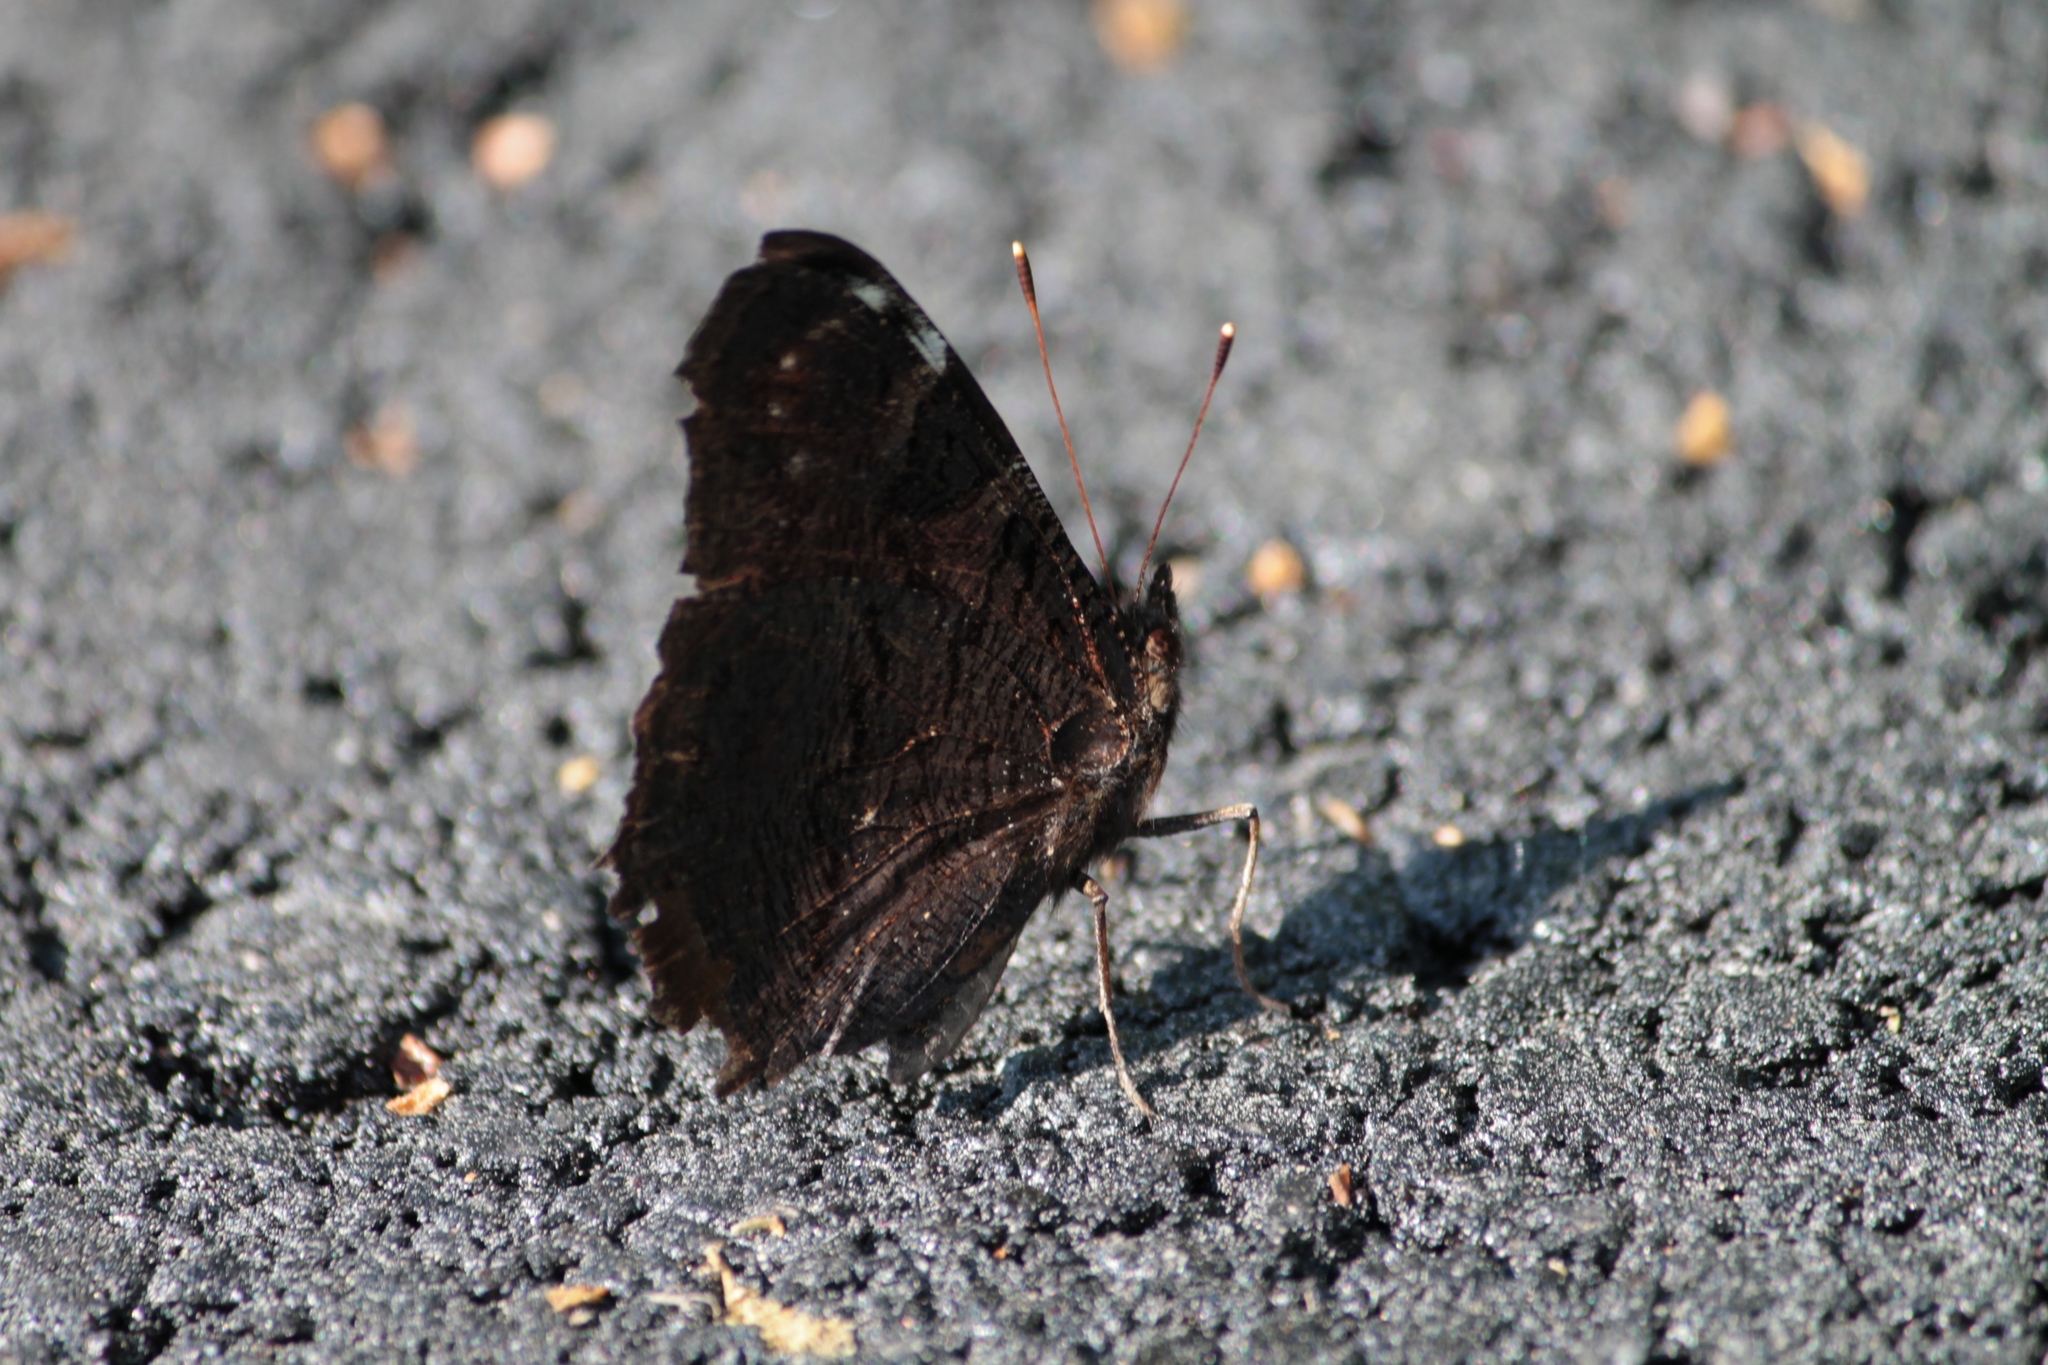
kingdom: Animalia
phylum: Arthropoda
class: Insecta
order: Lepidoptera
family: Nymphalidae
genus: Aglais
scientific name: Aglais io
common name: Peacock
